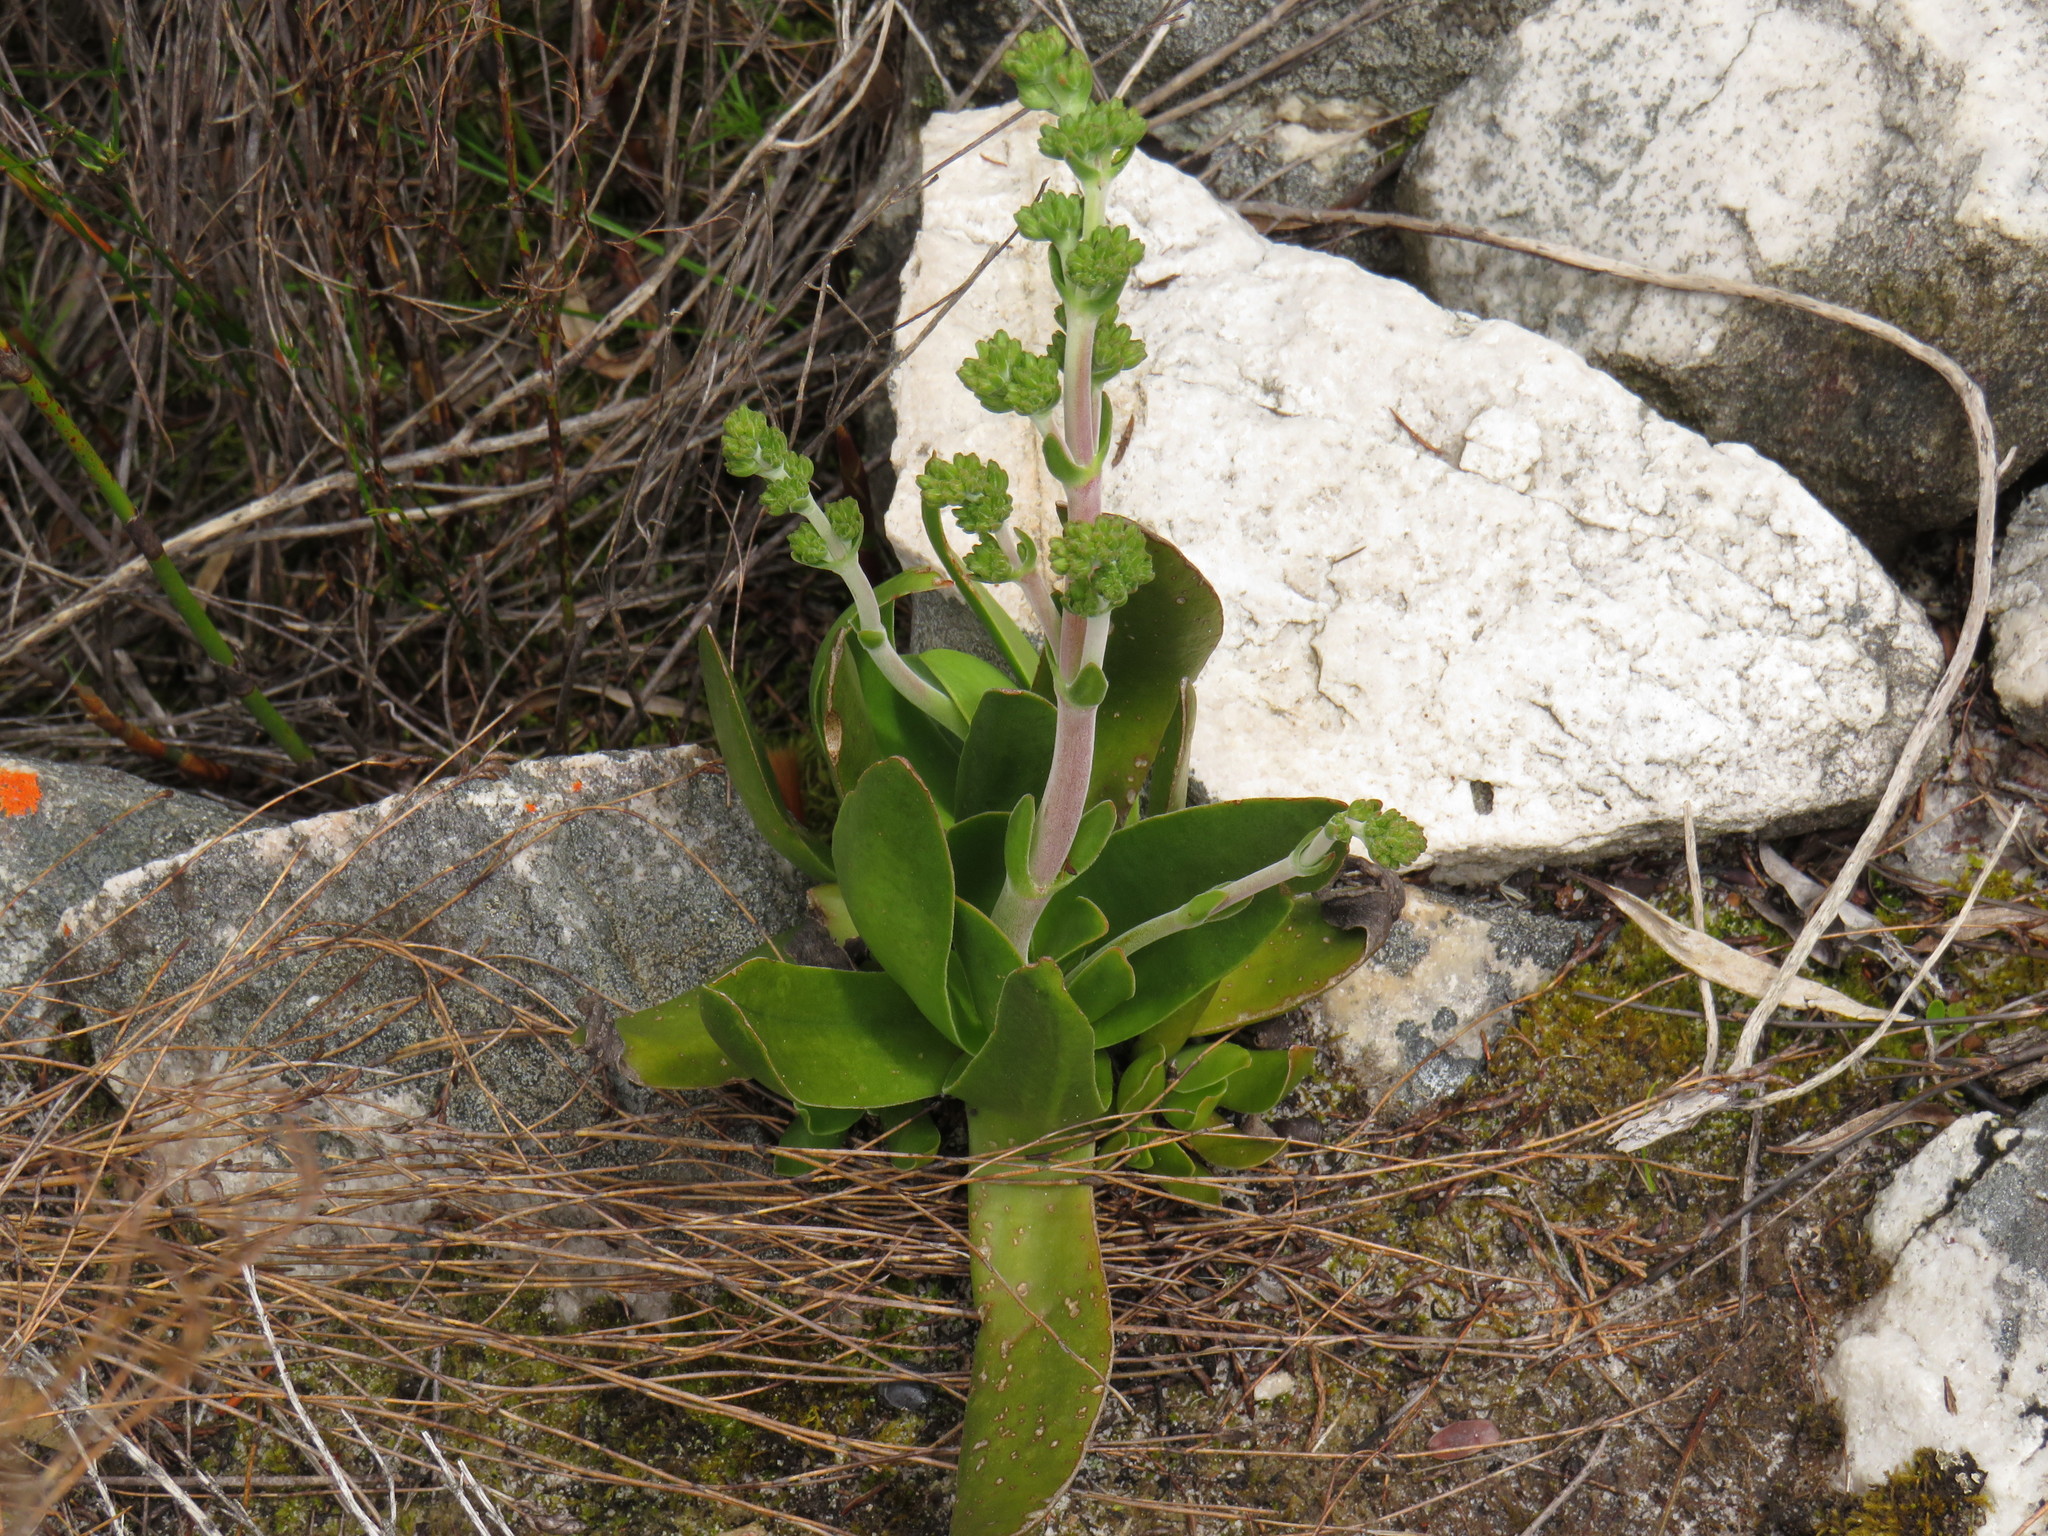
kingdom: Plantae
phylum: Tracheophyta
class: Magnoliopsida
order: Saxifragales
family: Crassulaceae
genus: Crassula
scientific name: Crassula nudicaulis
